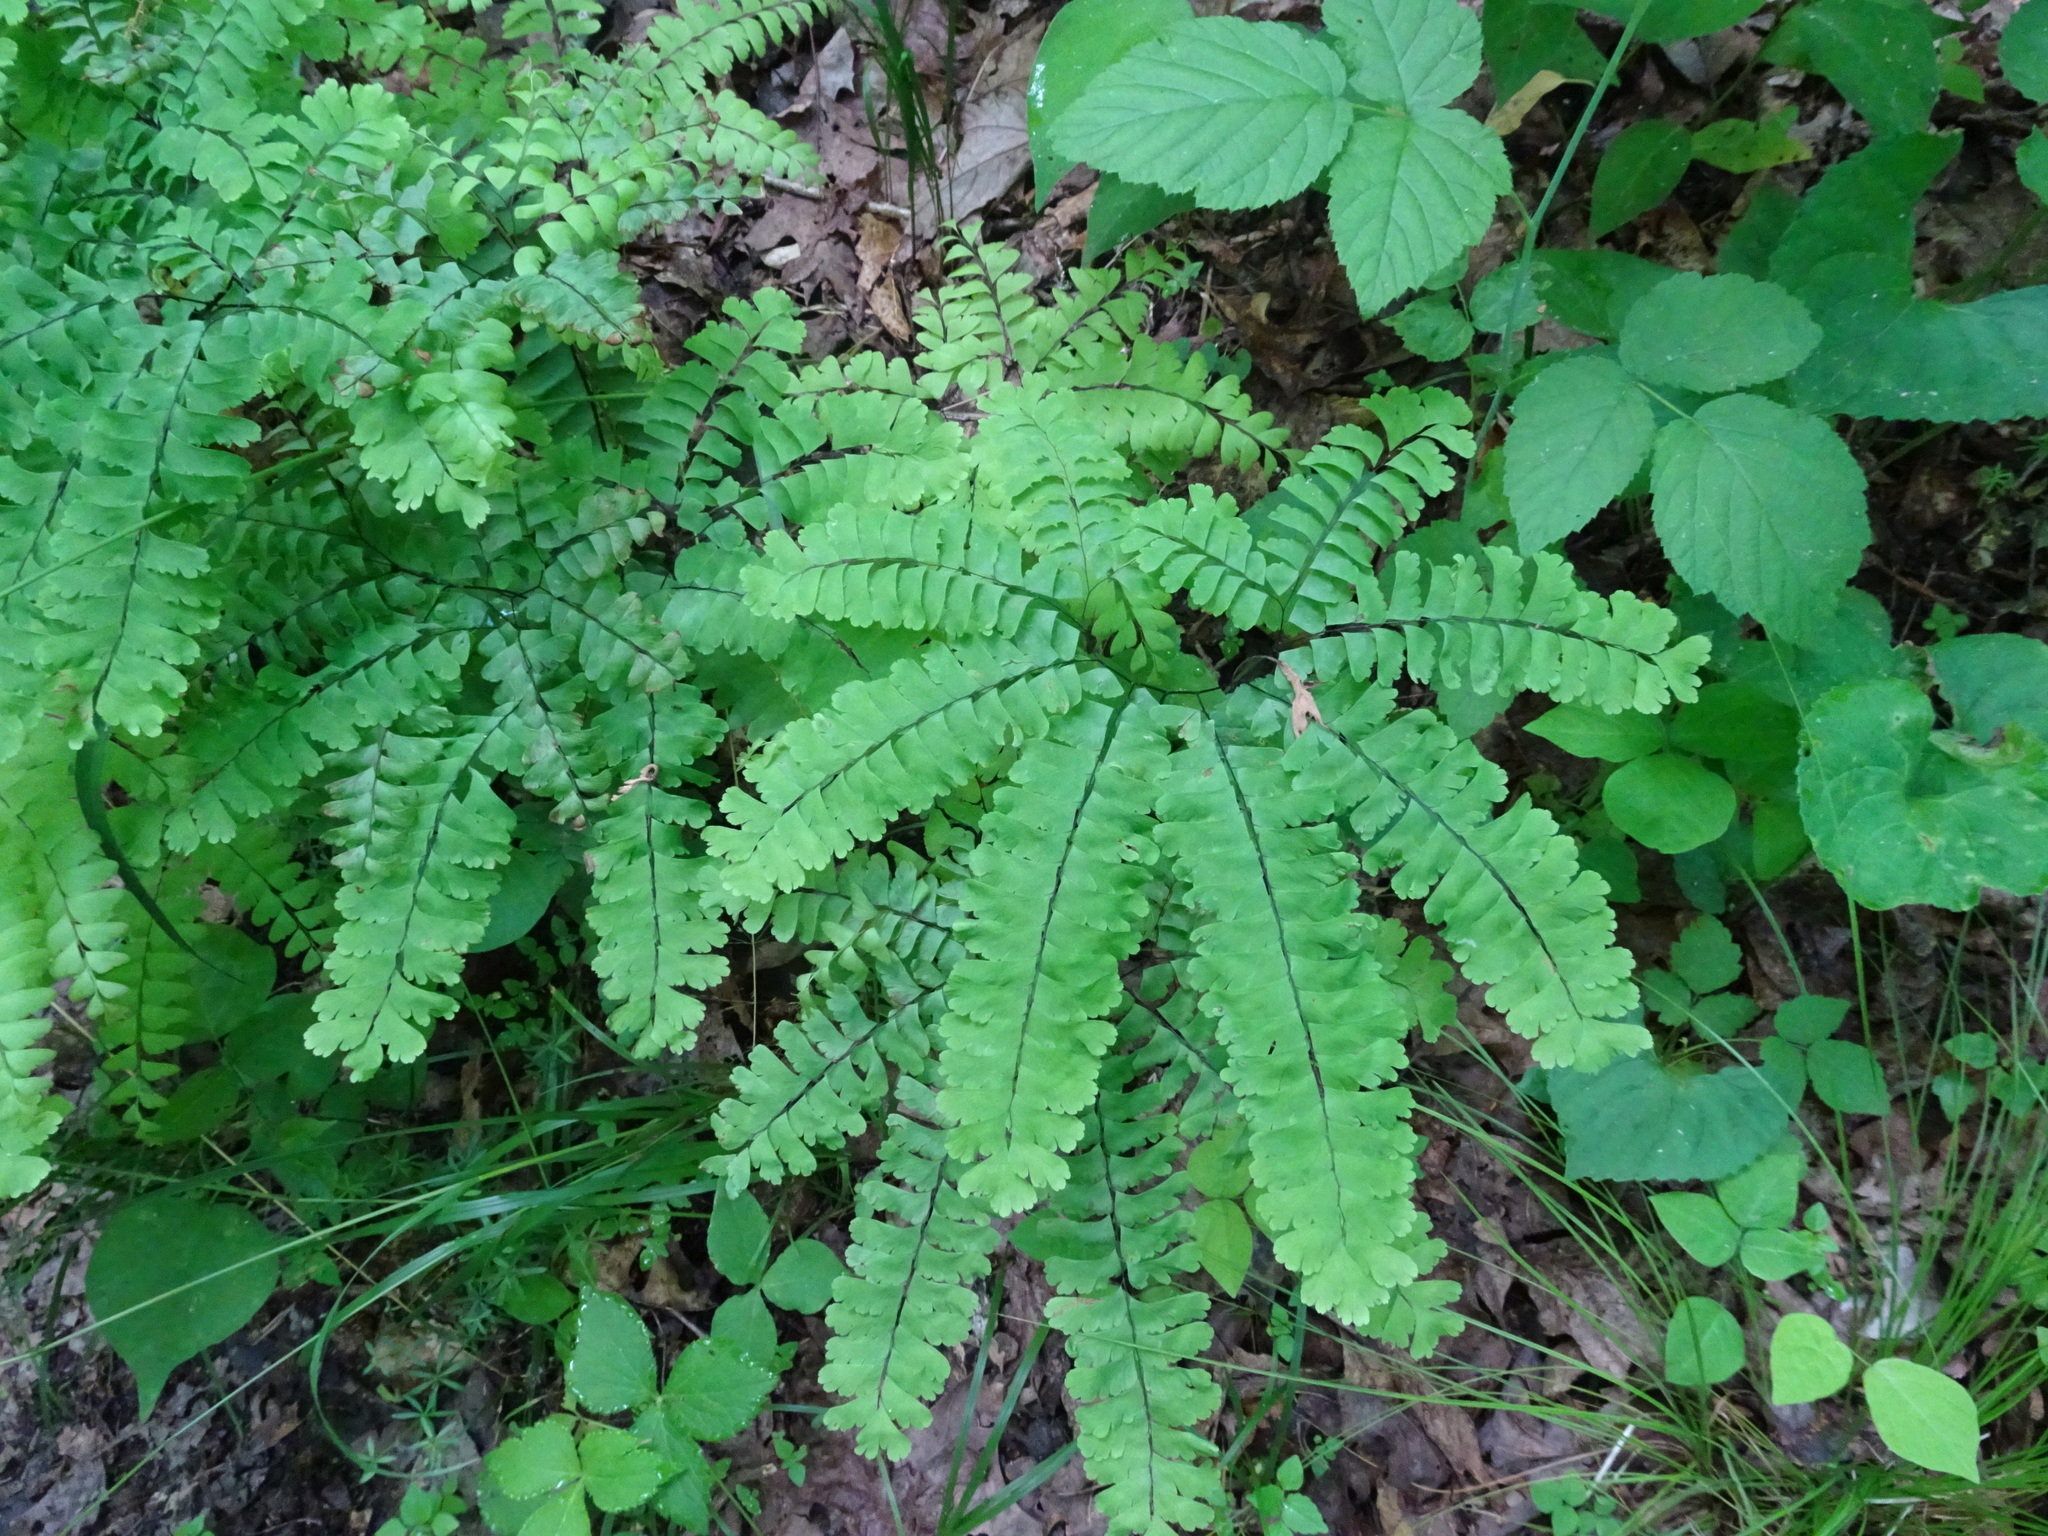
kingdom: Plantae
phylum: Tracheophyta
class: Polypodiopsida
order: Polypodiales
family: Pteridaceae
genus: Adiantum
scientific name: Adiantum pedatum
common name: Five-finger fern
